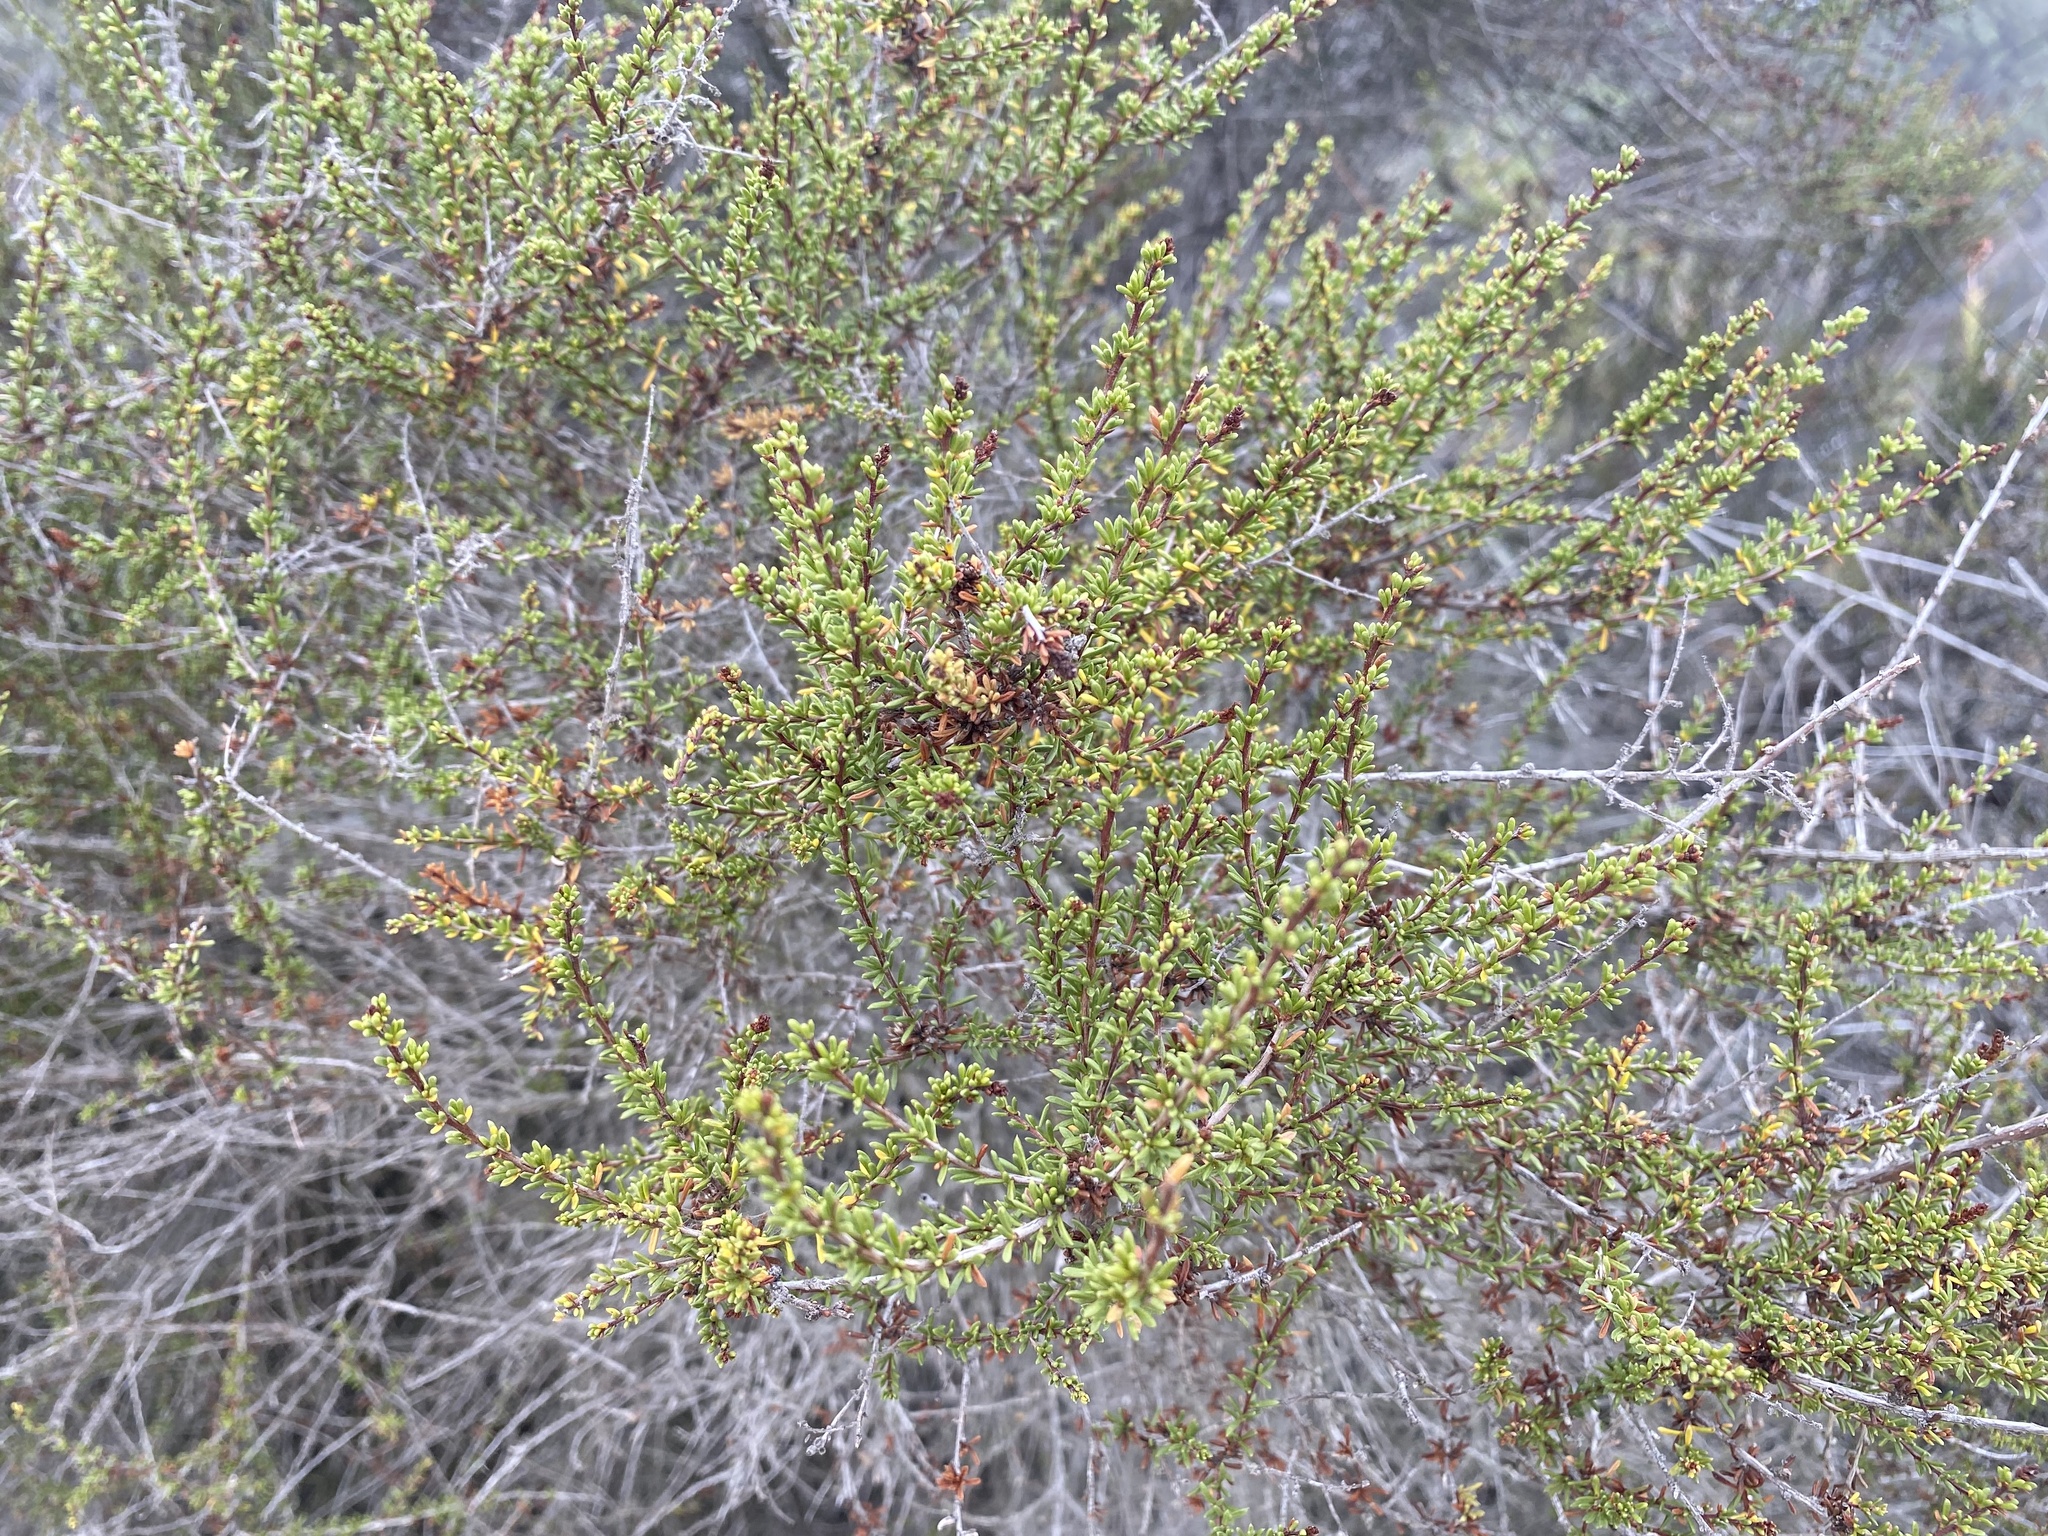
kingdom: Plantae
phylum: Tracheophyta
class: Magnoliopsida
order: Rosales
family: Rosaceae
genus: Adenostoma
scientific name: Adenostoma fasciculatum
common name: Chamise
